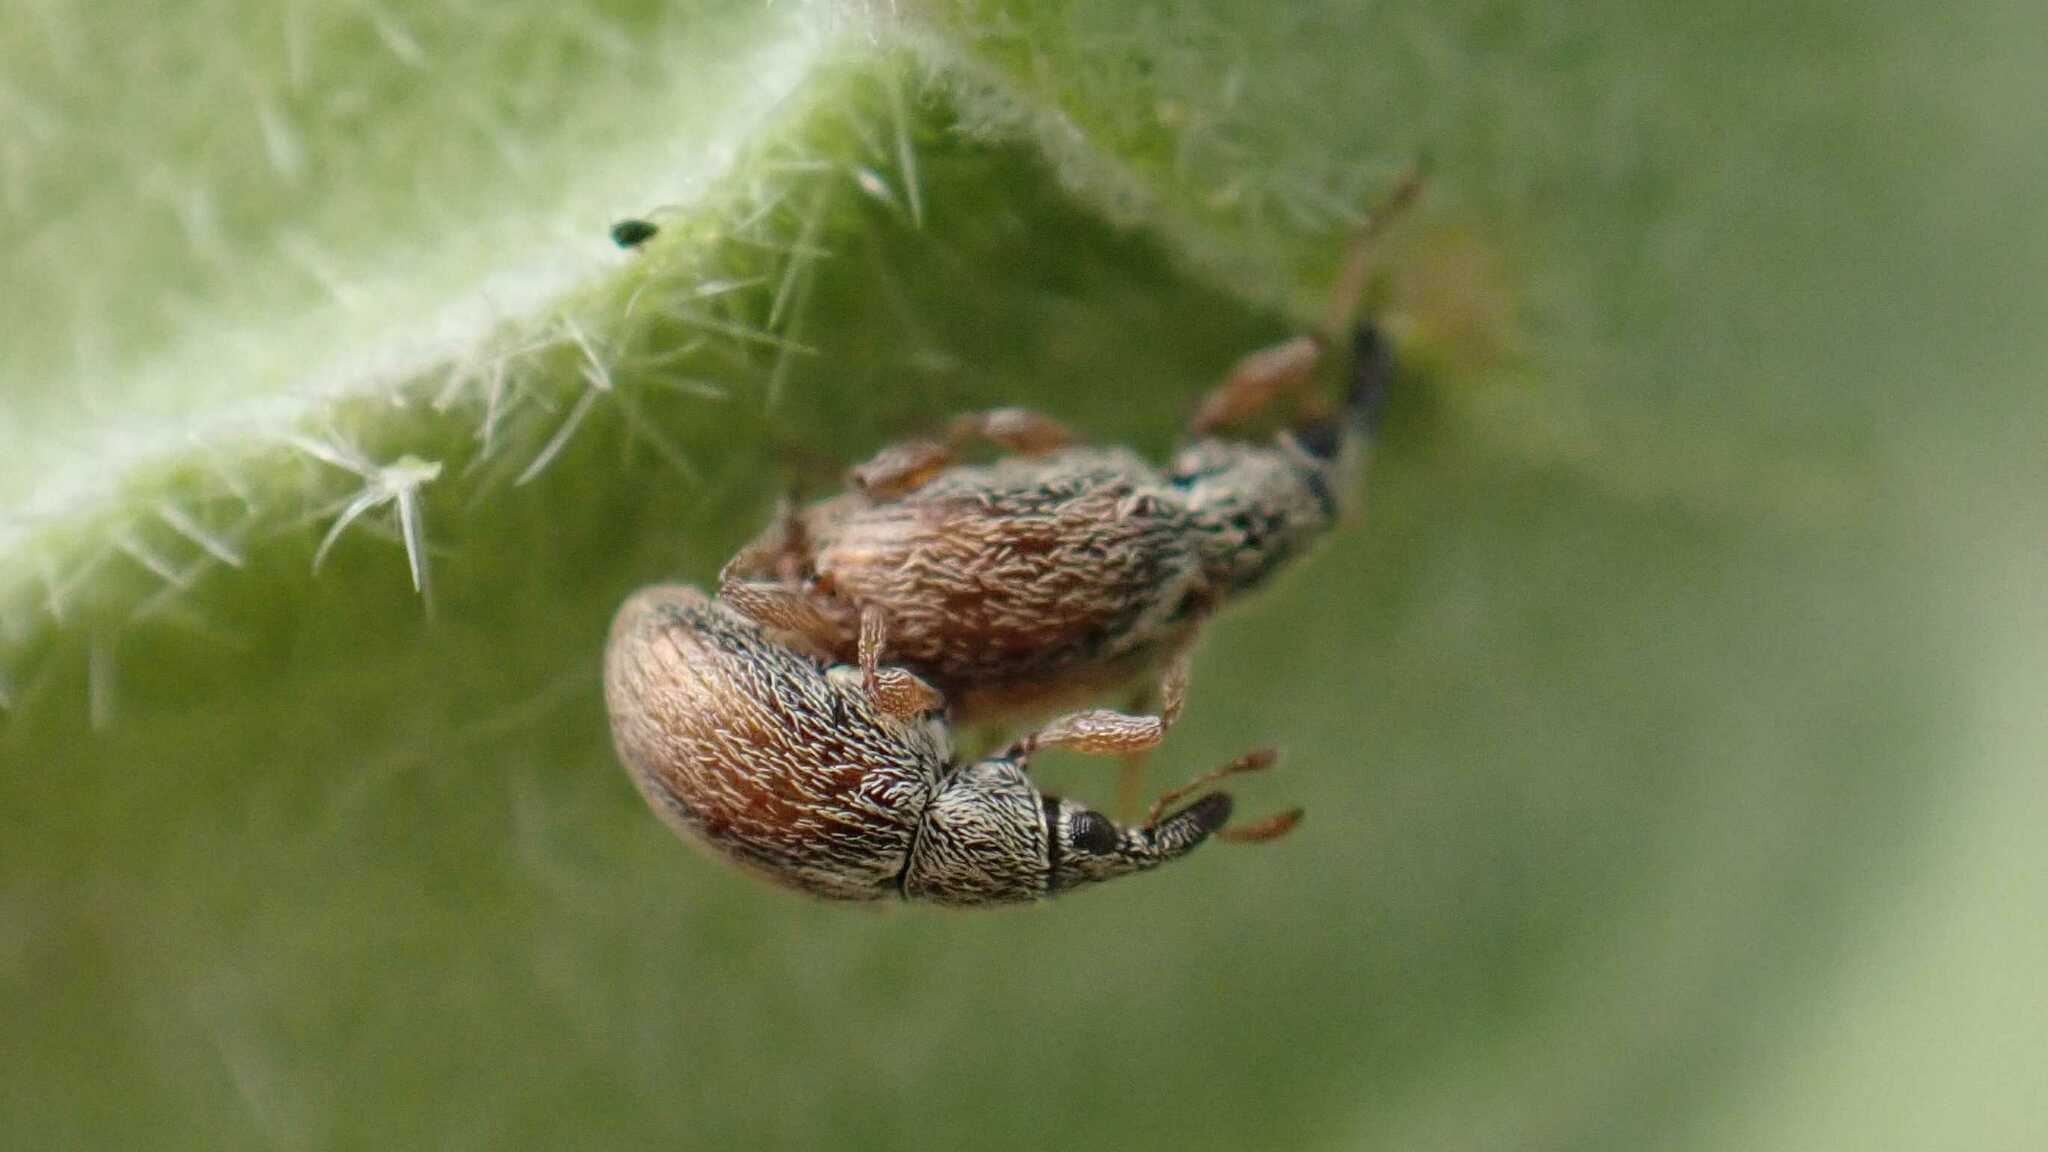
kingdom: Animalia
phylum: Arthropoda
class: Insecta
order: Coleoptera
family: Apionidae
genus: Malvapion
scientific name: Malvapion malvae
